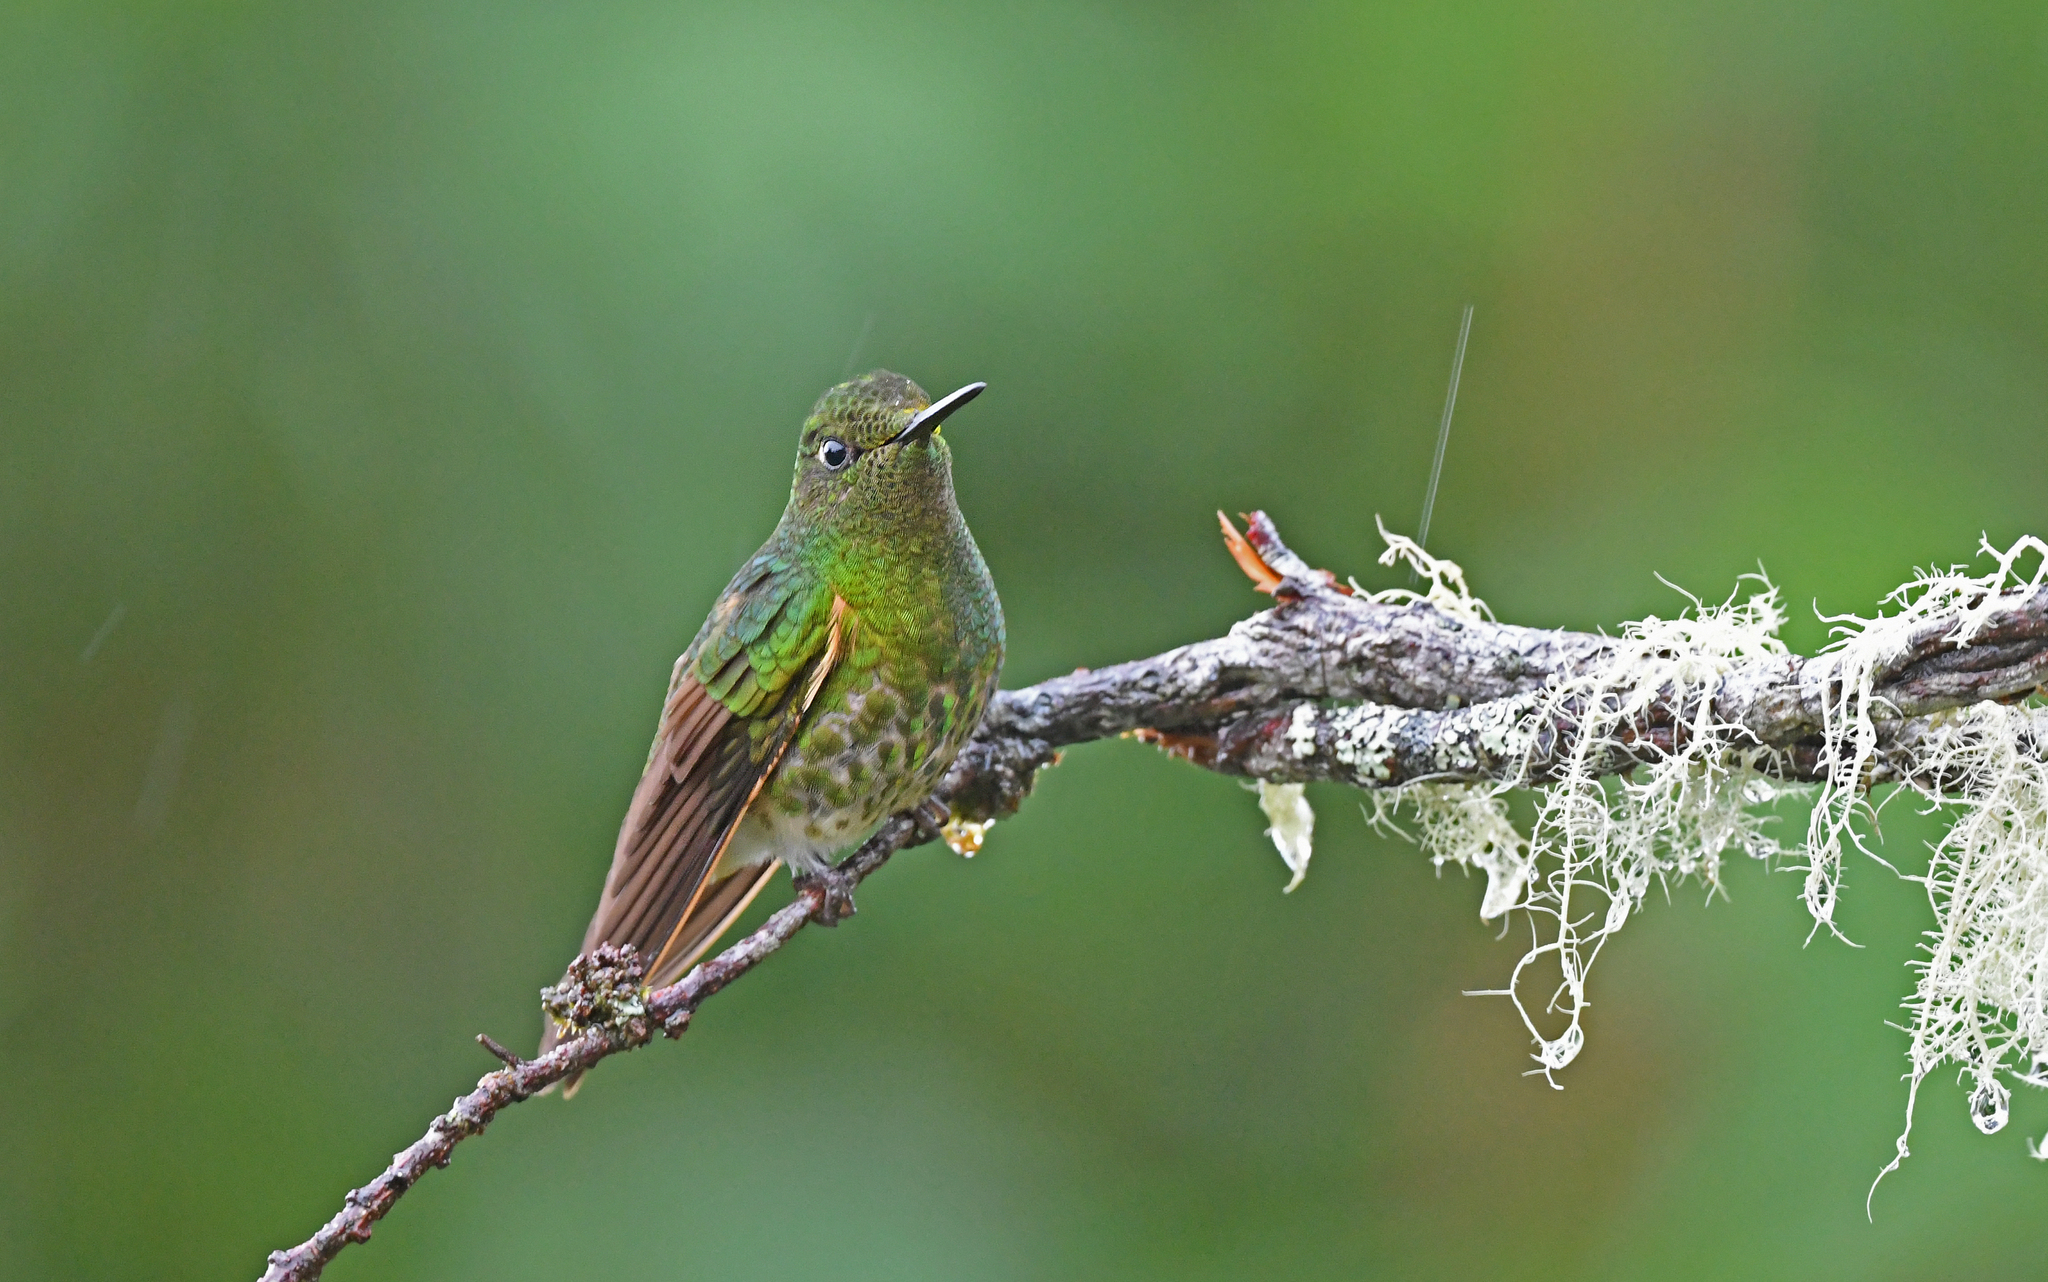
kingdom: Animalia
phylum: Chordata
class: Aves
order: Apodiformes
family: Trochilidae
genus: Boissonneaua
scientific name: Boissonneaua flavescens
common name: Buff-tailed coronet
